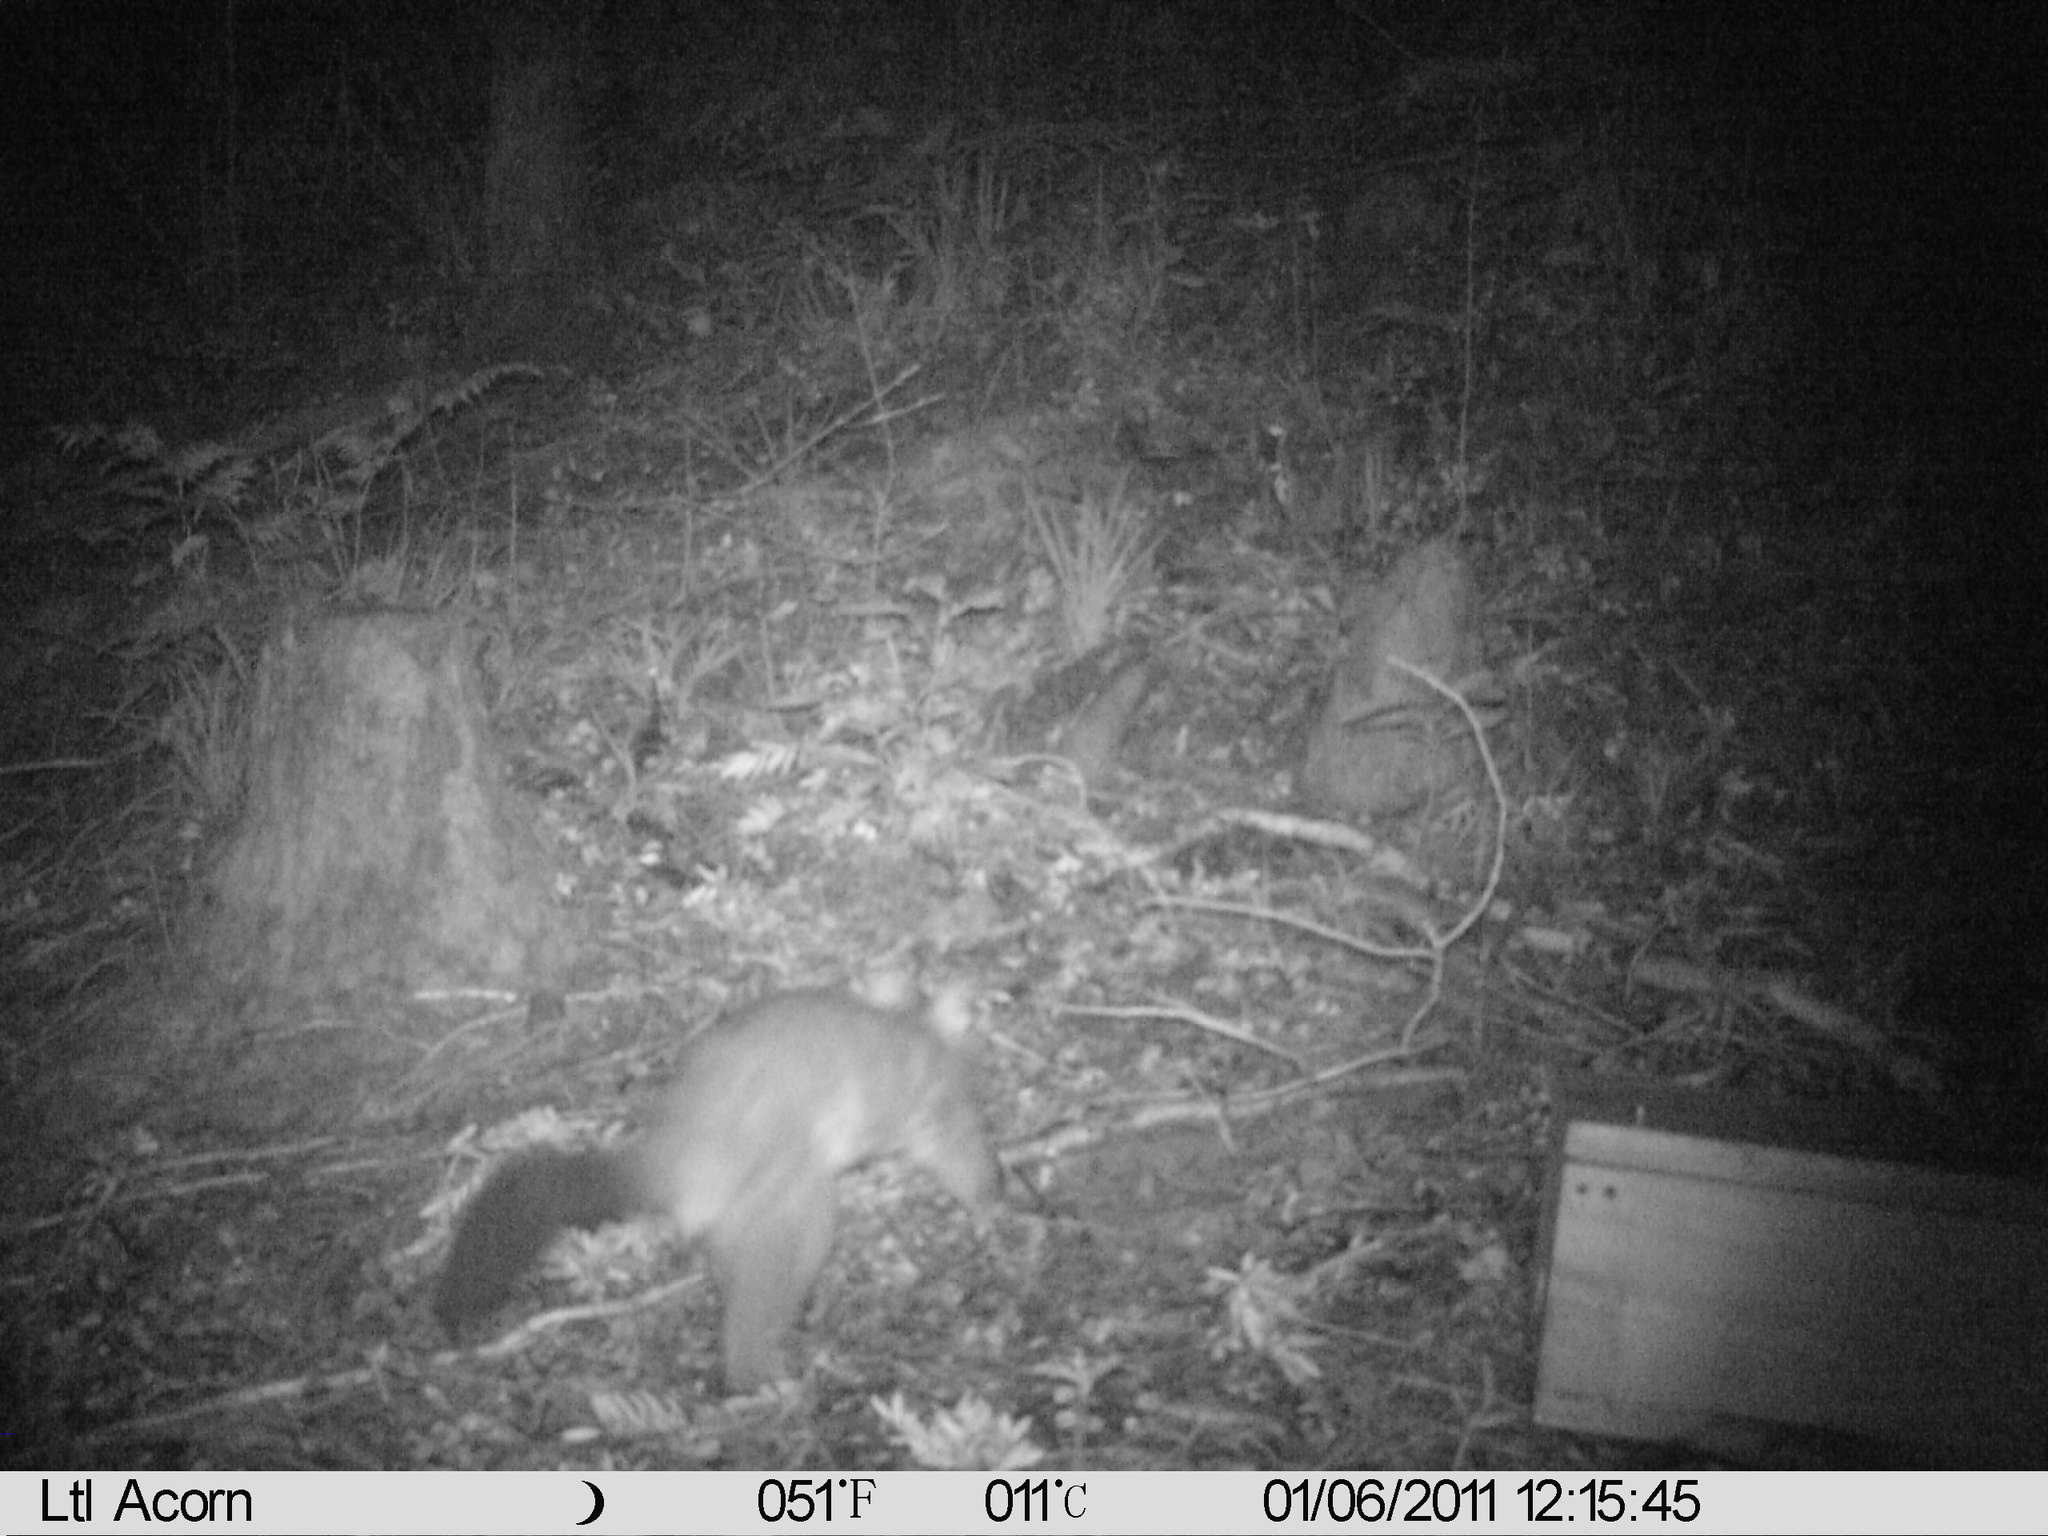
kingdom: Animalia
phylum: Chordata
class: Mammalia
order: Diprotodontia
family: Phalangeridae
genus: Trichosurus
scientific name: Trichosurus vulpecula
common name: Common brushtail
